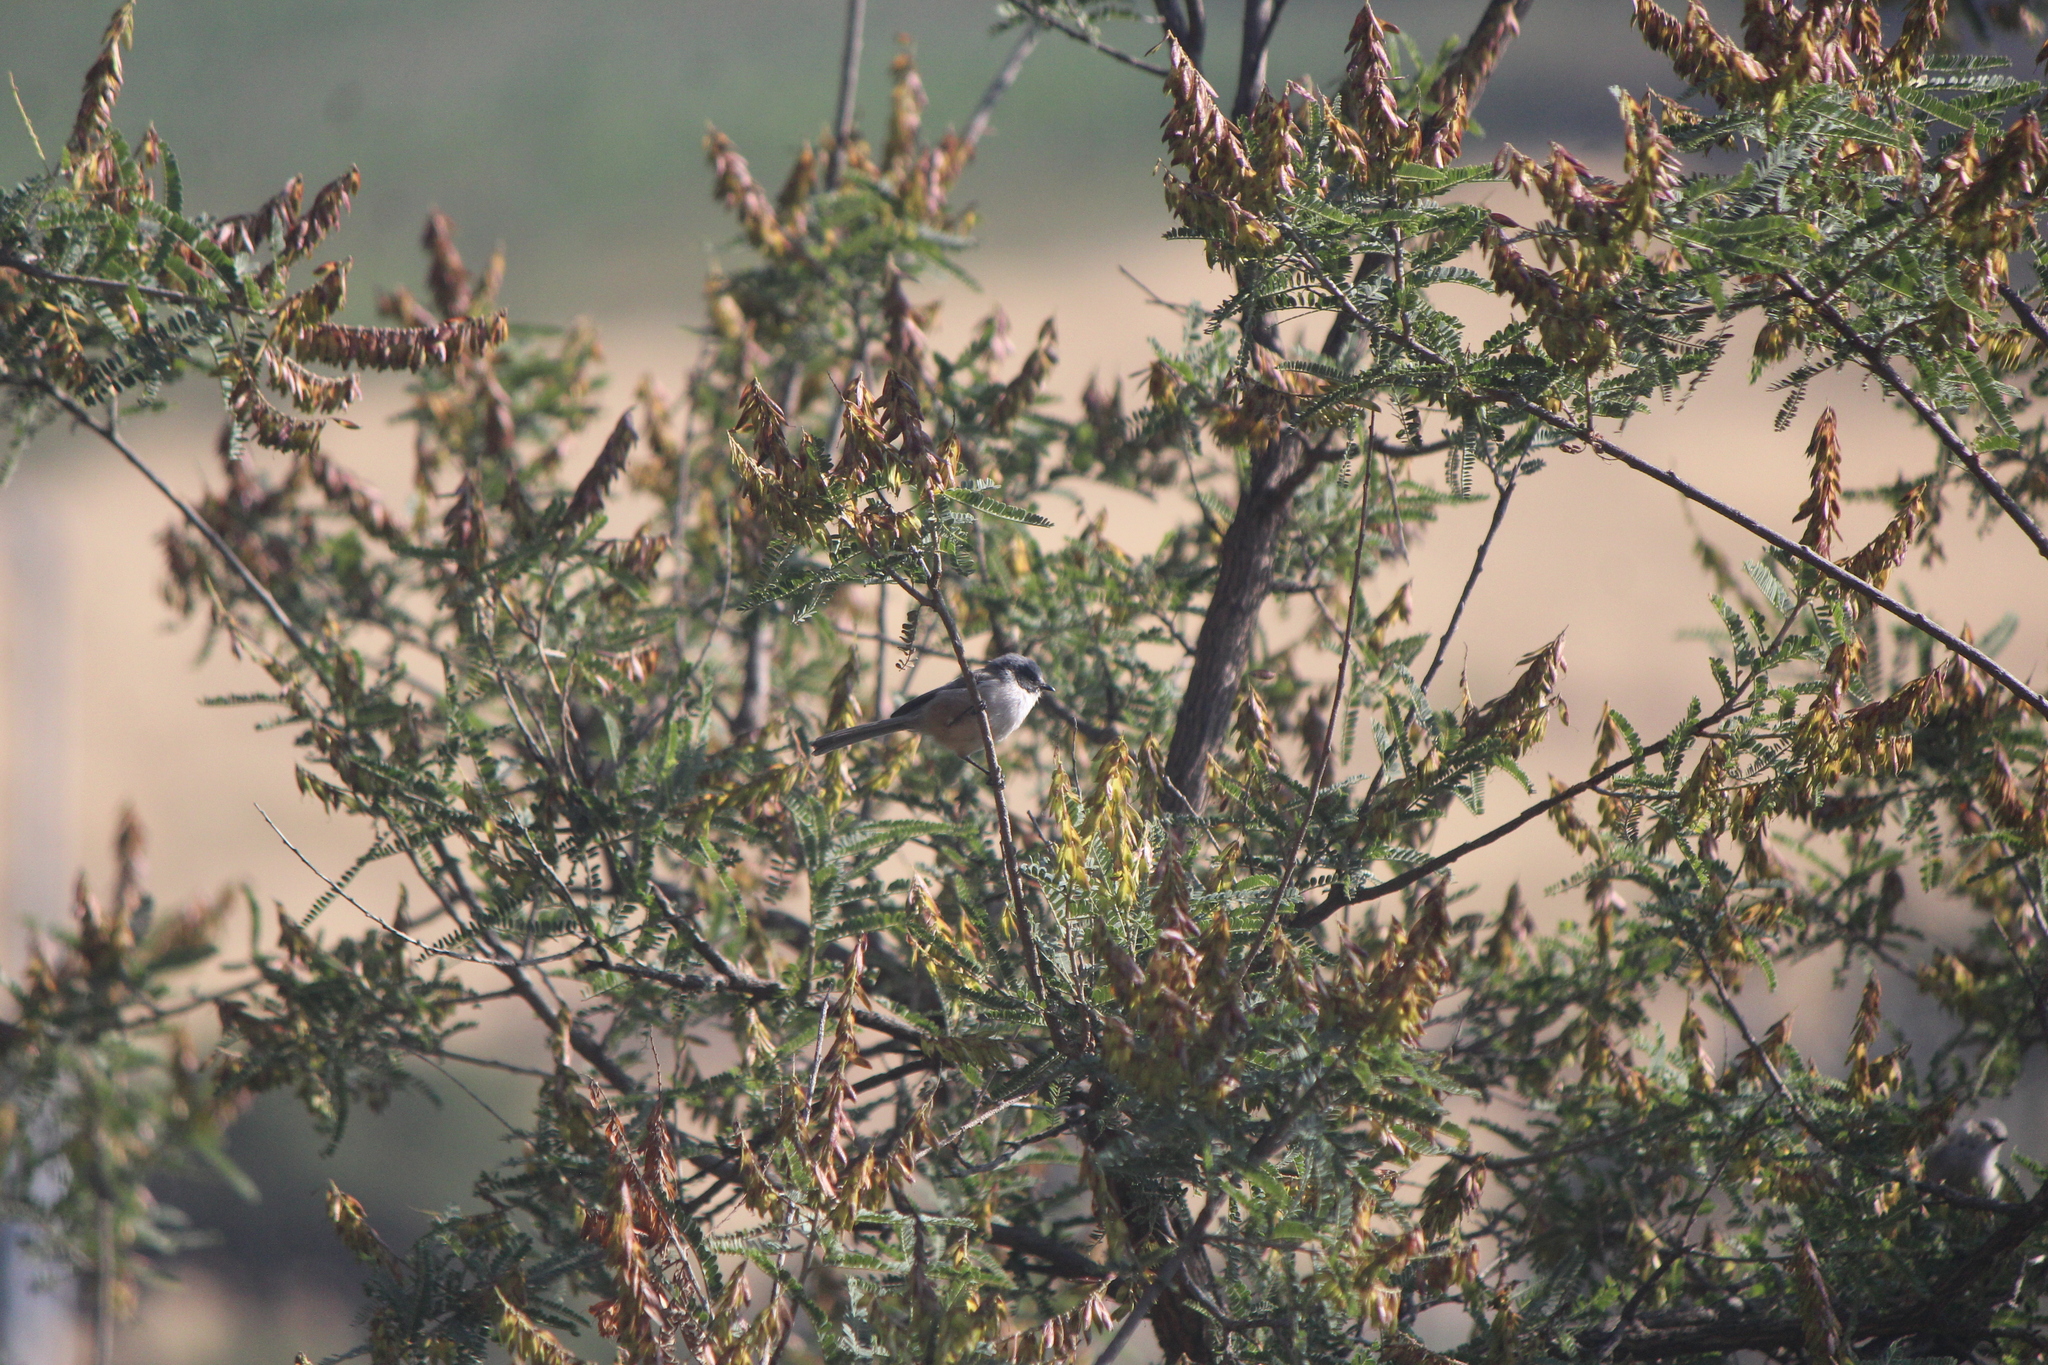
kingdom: Animalia
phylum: Chordata
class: Aves
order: Passeriformes
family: Aegithalidae
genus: Psaltriparus
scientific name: Psaltriparus minimus
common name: American bushtit
